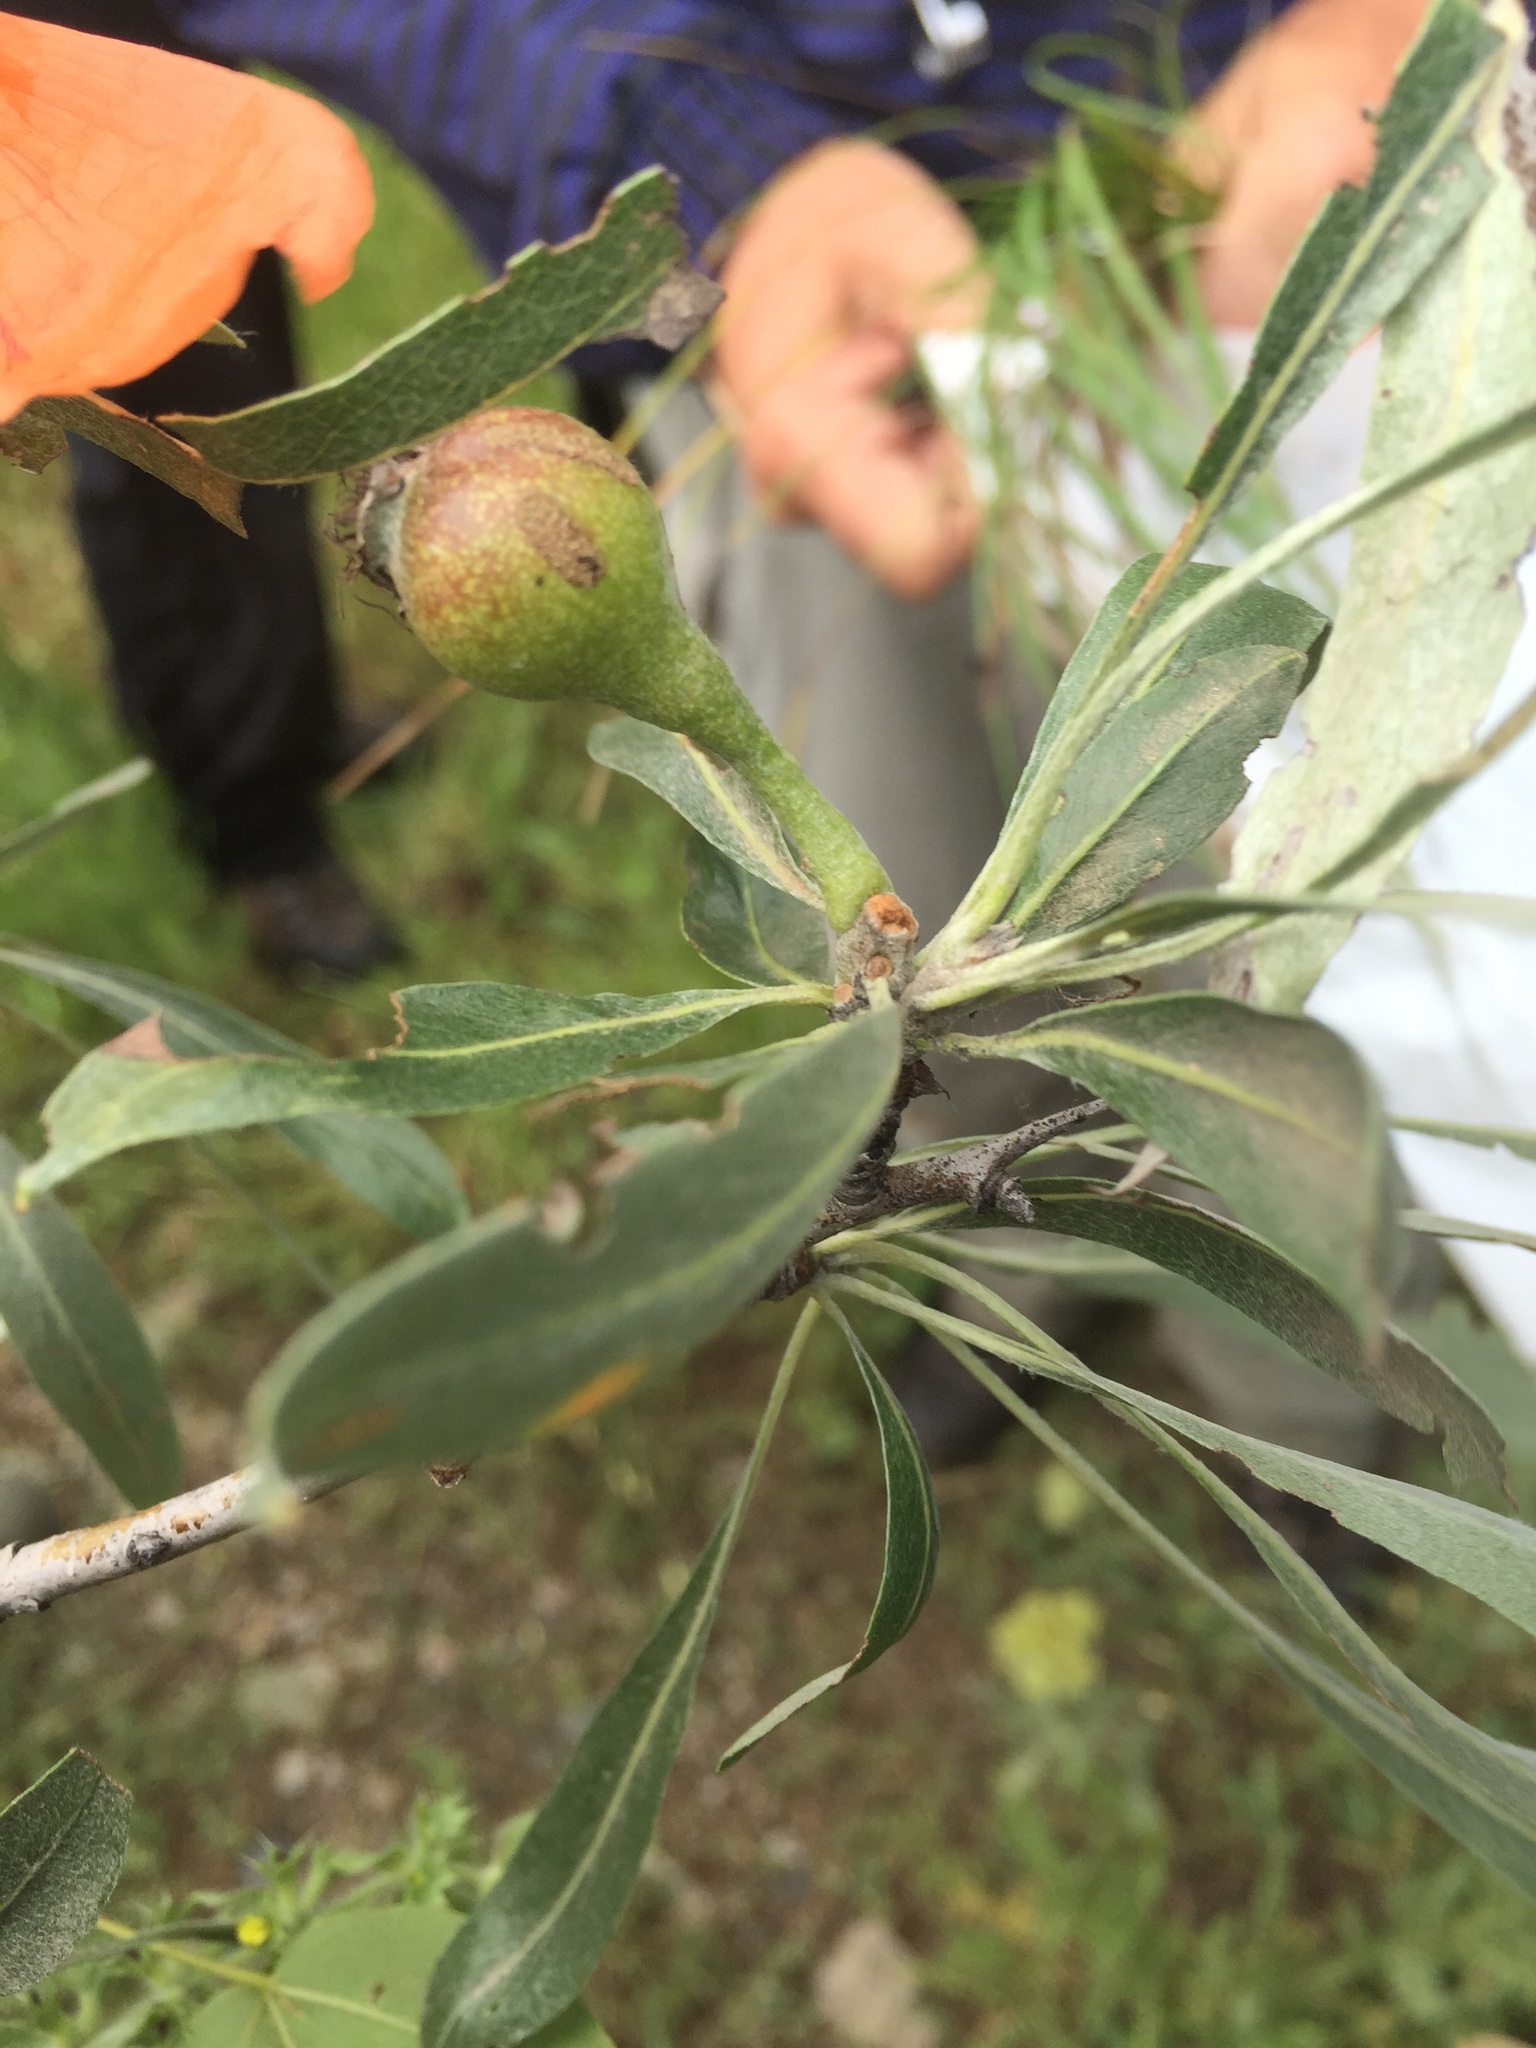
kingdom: Plantae
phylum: Tracheophyta
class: Magnoliopsida
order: Rosales
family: Rosaceae
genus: Pyrus
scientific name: Pyrus salicifolia
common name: Willow-leaved pear
